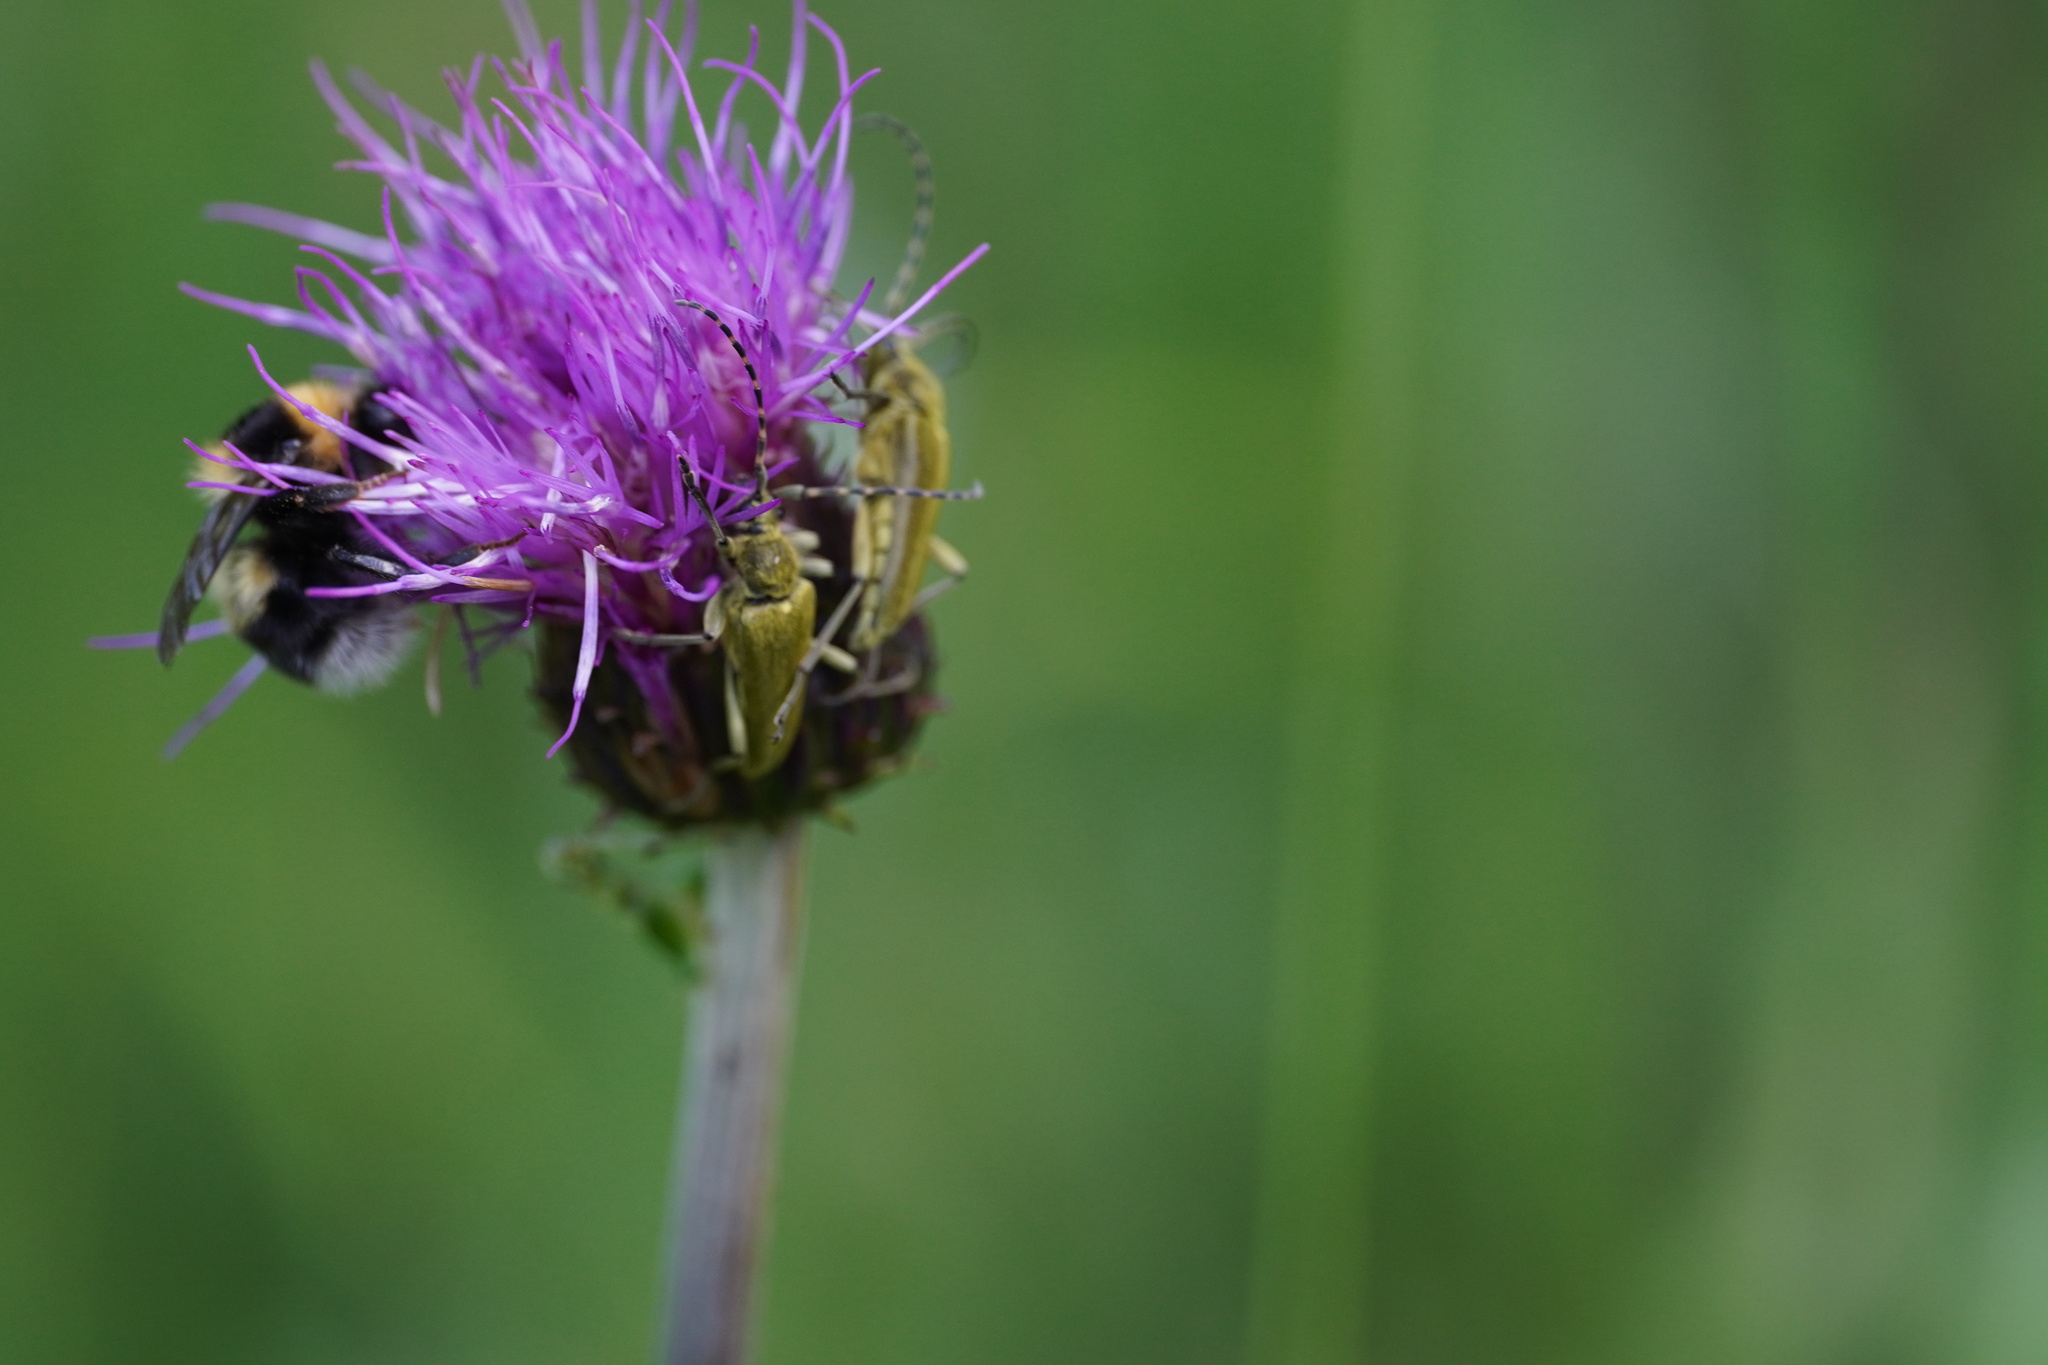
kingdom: Animalia
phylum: Arthropoda
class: Insecta
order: Coleoptera
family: Cerambycidae
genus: Lepturobosca
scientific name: Lepturobosca virens
